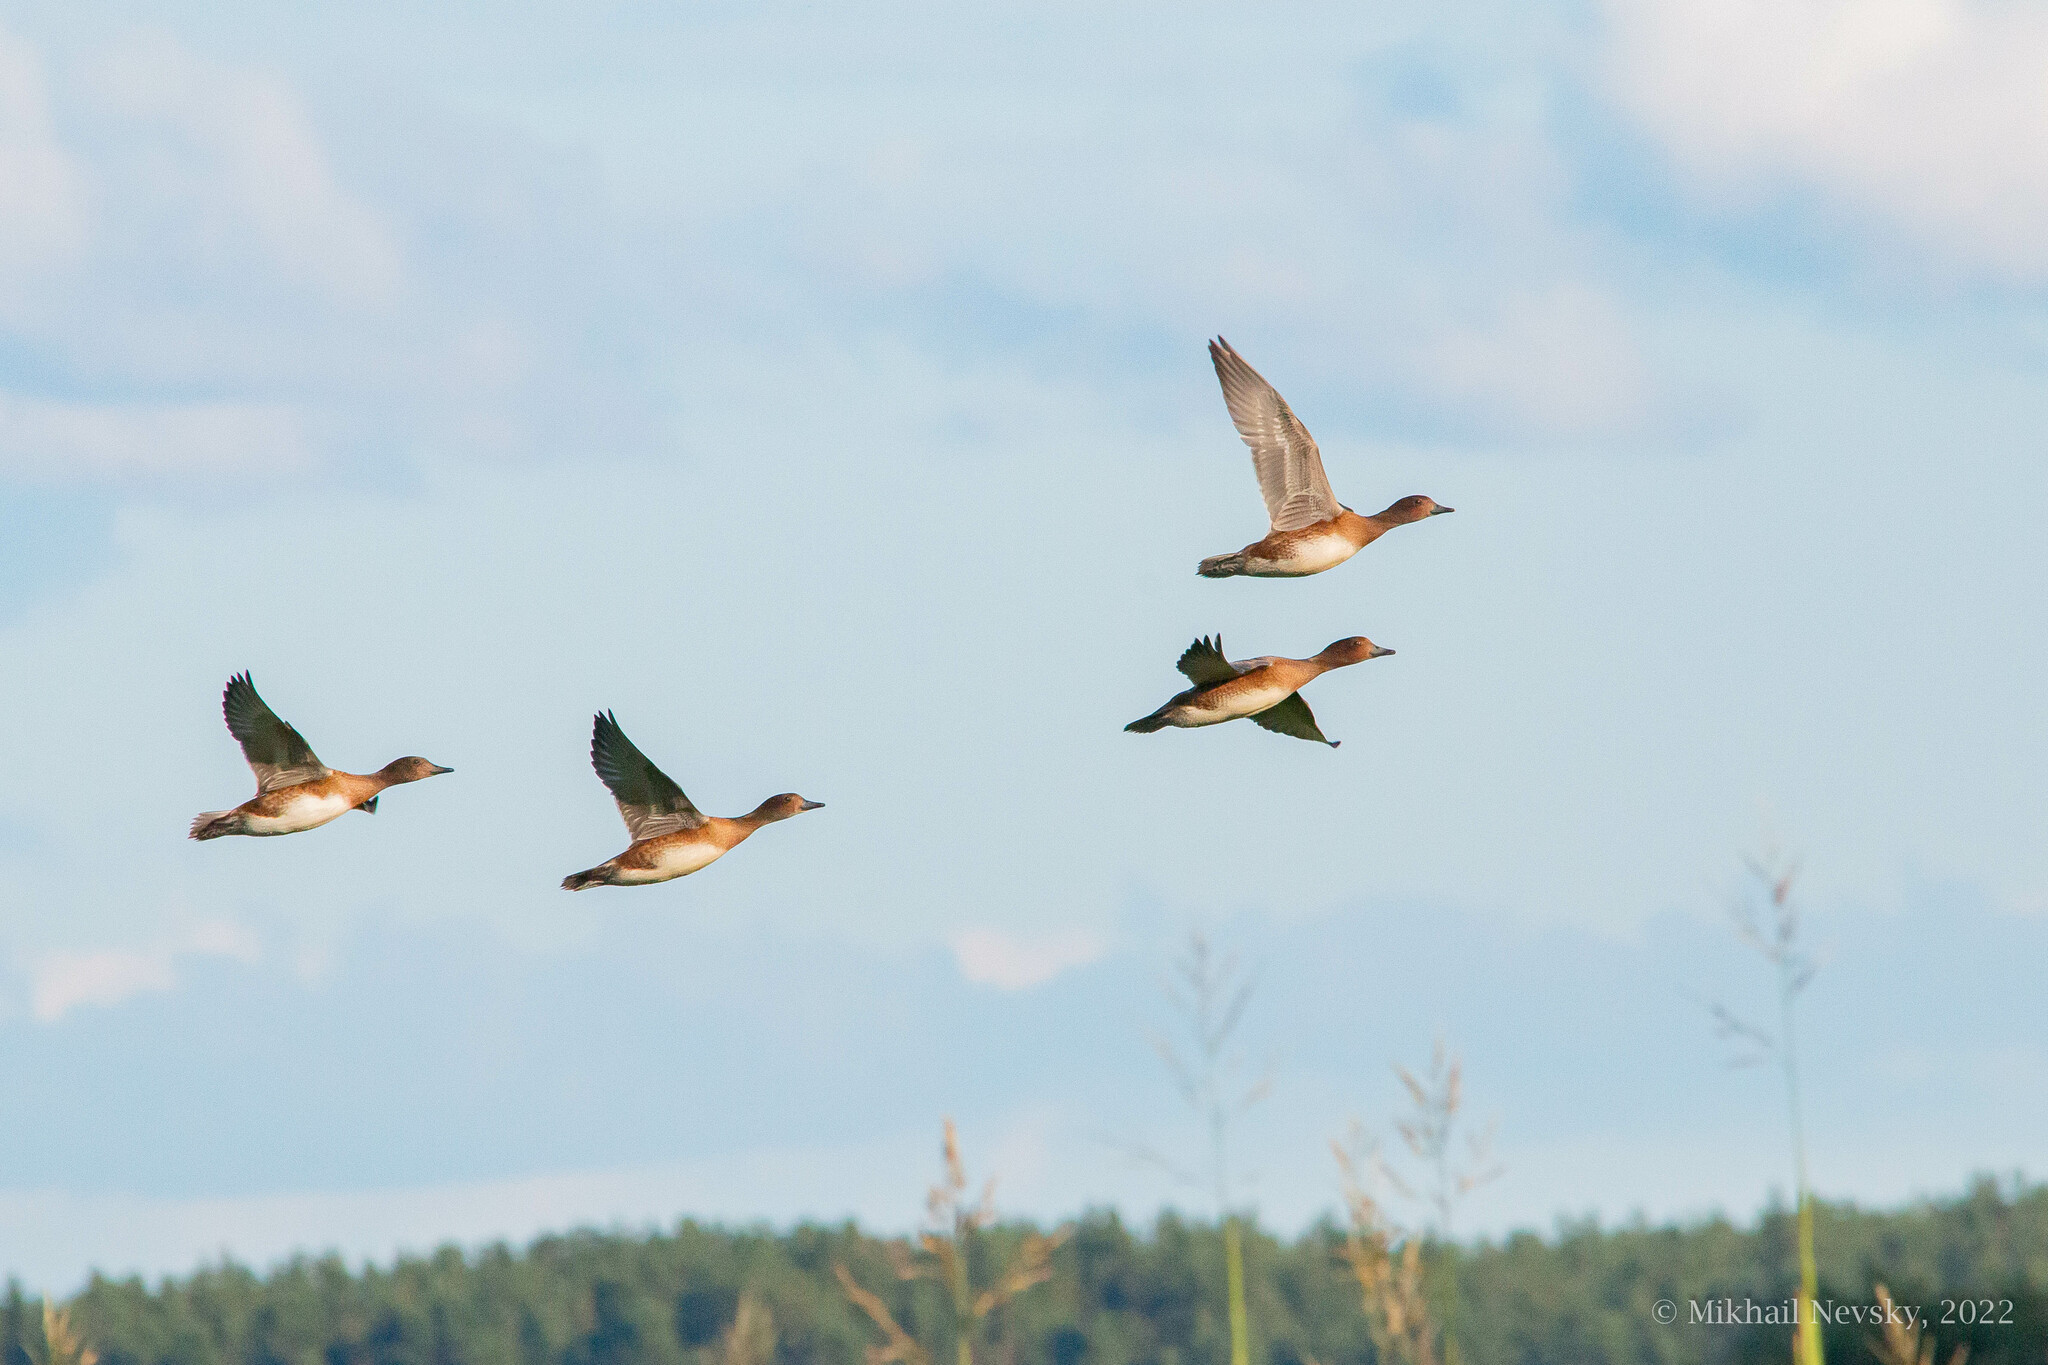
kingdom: Animalia
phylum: Chordata
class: Aves
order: Anseriformes
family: Anatidae
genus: Mareca
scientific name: Mareca penelope
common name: Eurasian wigeon
